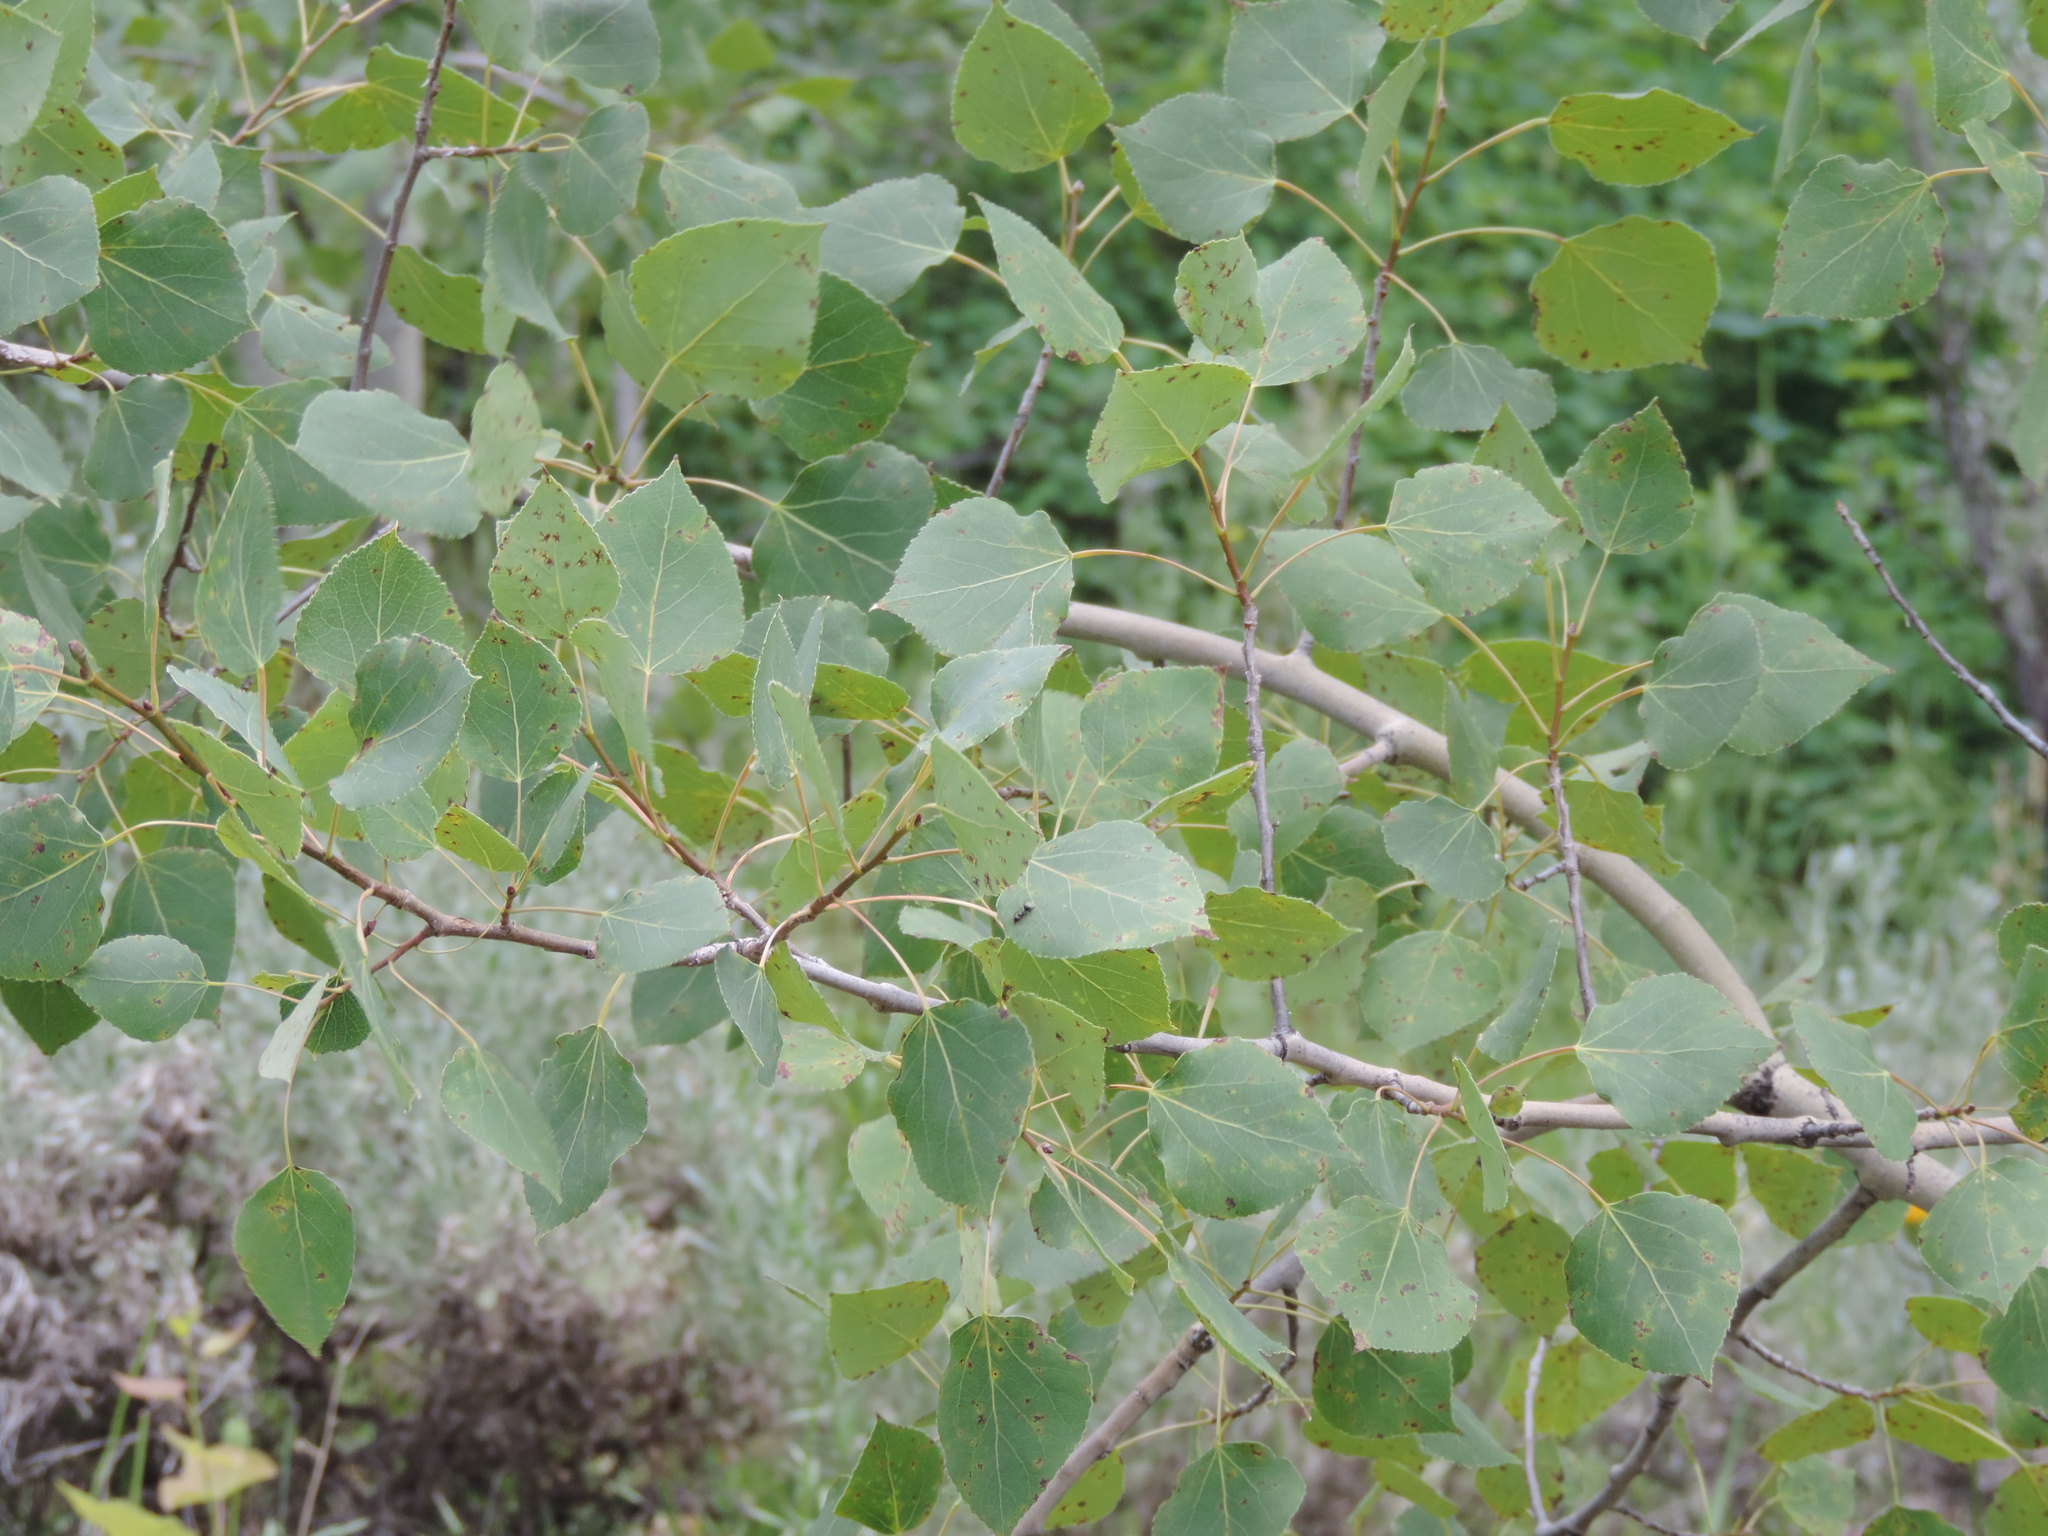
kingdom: Plantae
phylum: Tracheophyta
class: Magnoliopsida
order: Malpighiales
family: Salicaceae
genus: Populus
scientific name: Populus tremuloides
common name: Quaking aspen
